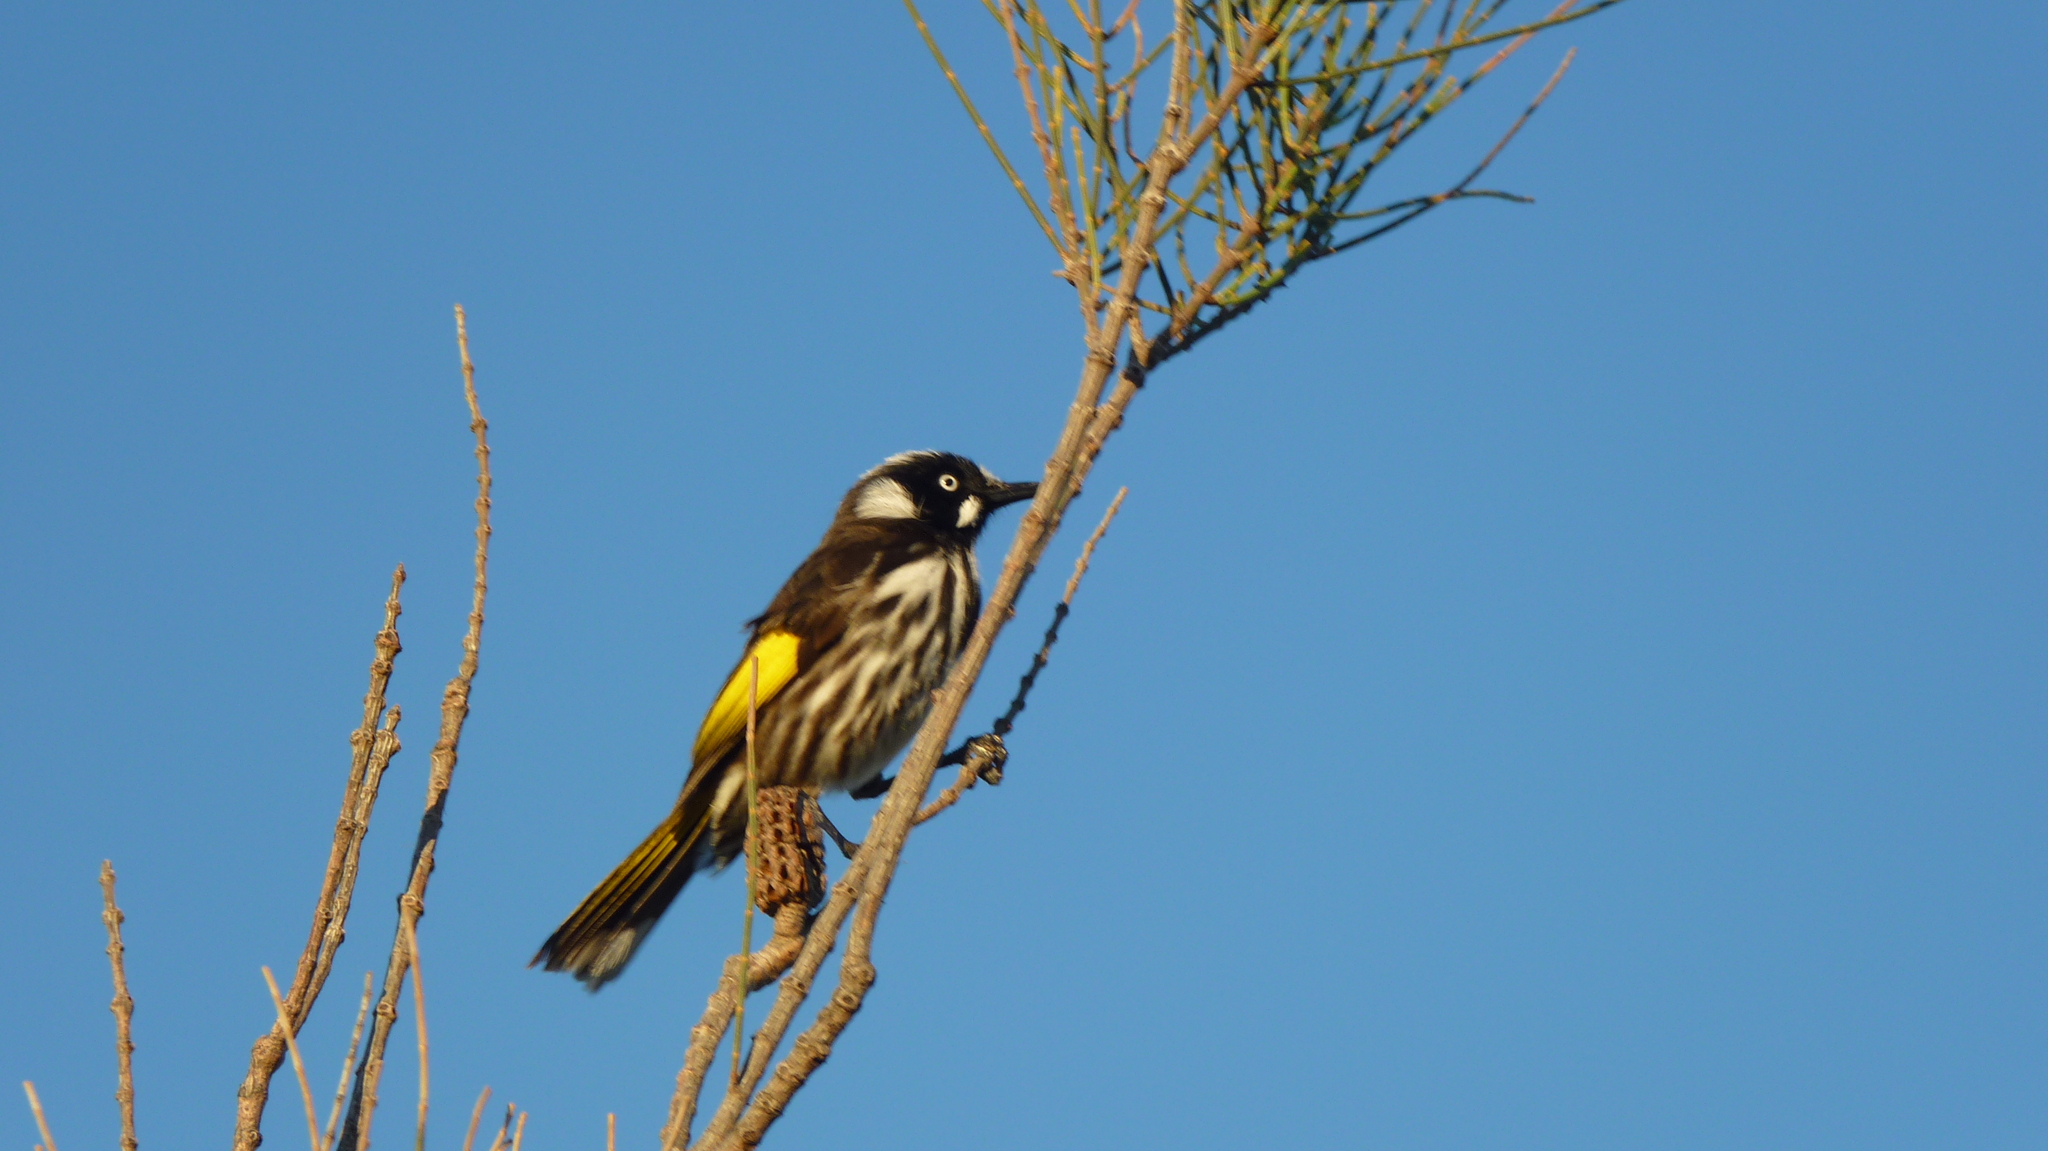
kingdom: Animalia
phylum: Chordata
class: Aves
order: Passeriformes
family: Meliphagidae
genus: Phylidonyris
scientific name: Phylidonyris novaehollandiae
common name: New holland honeyeater
